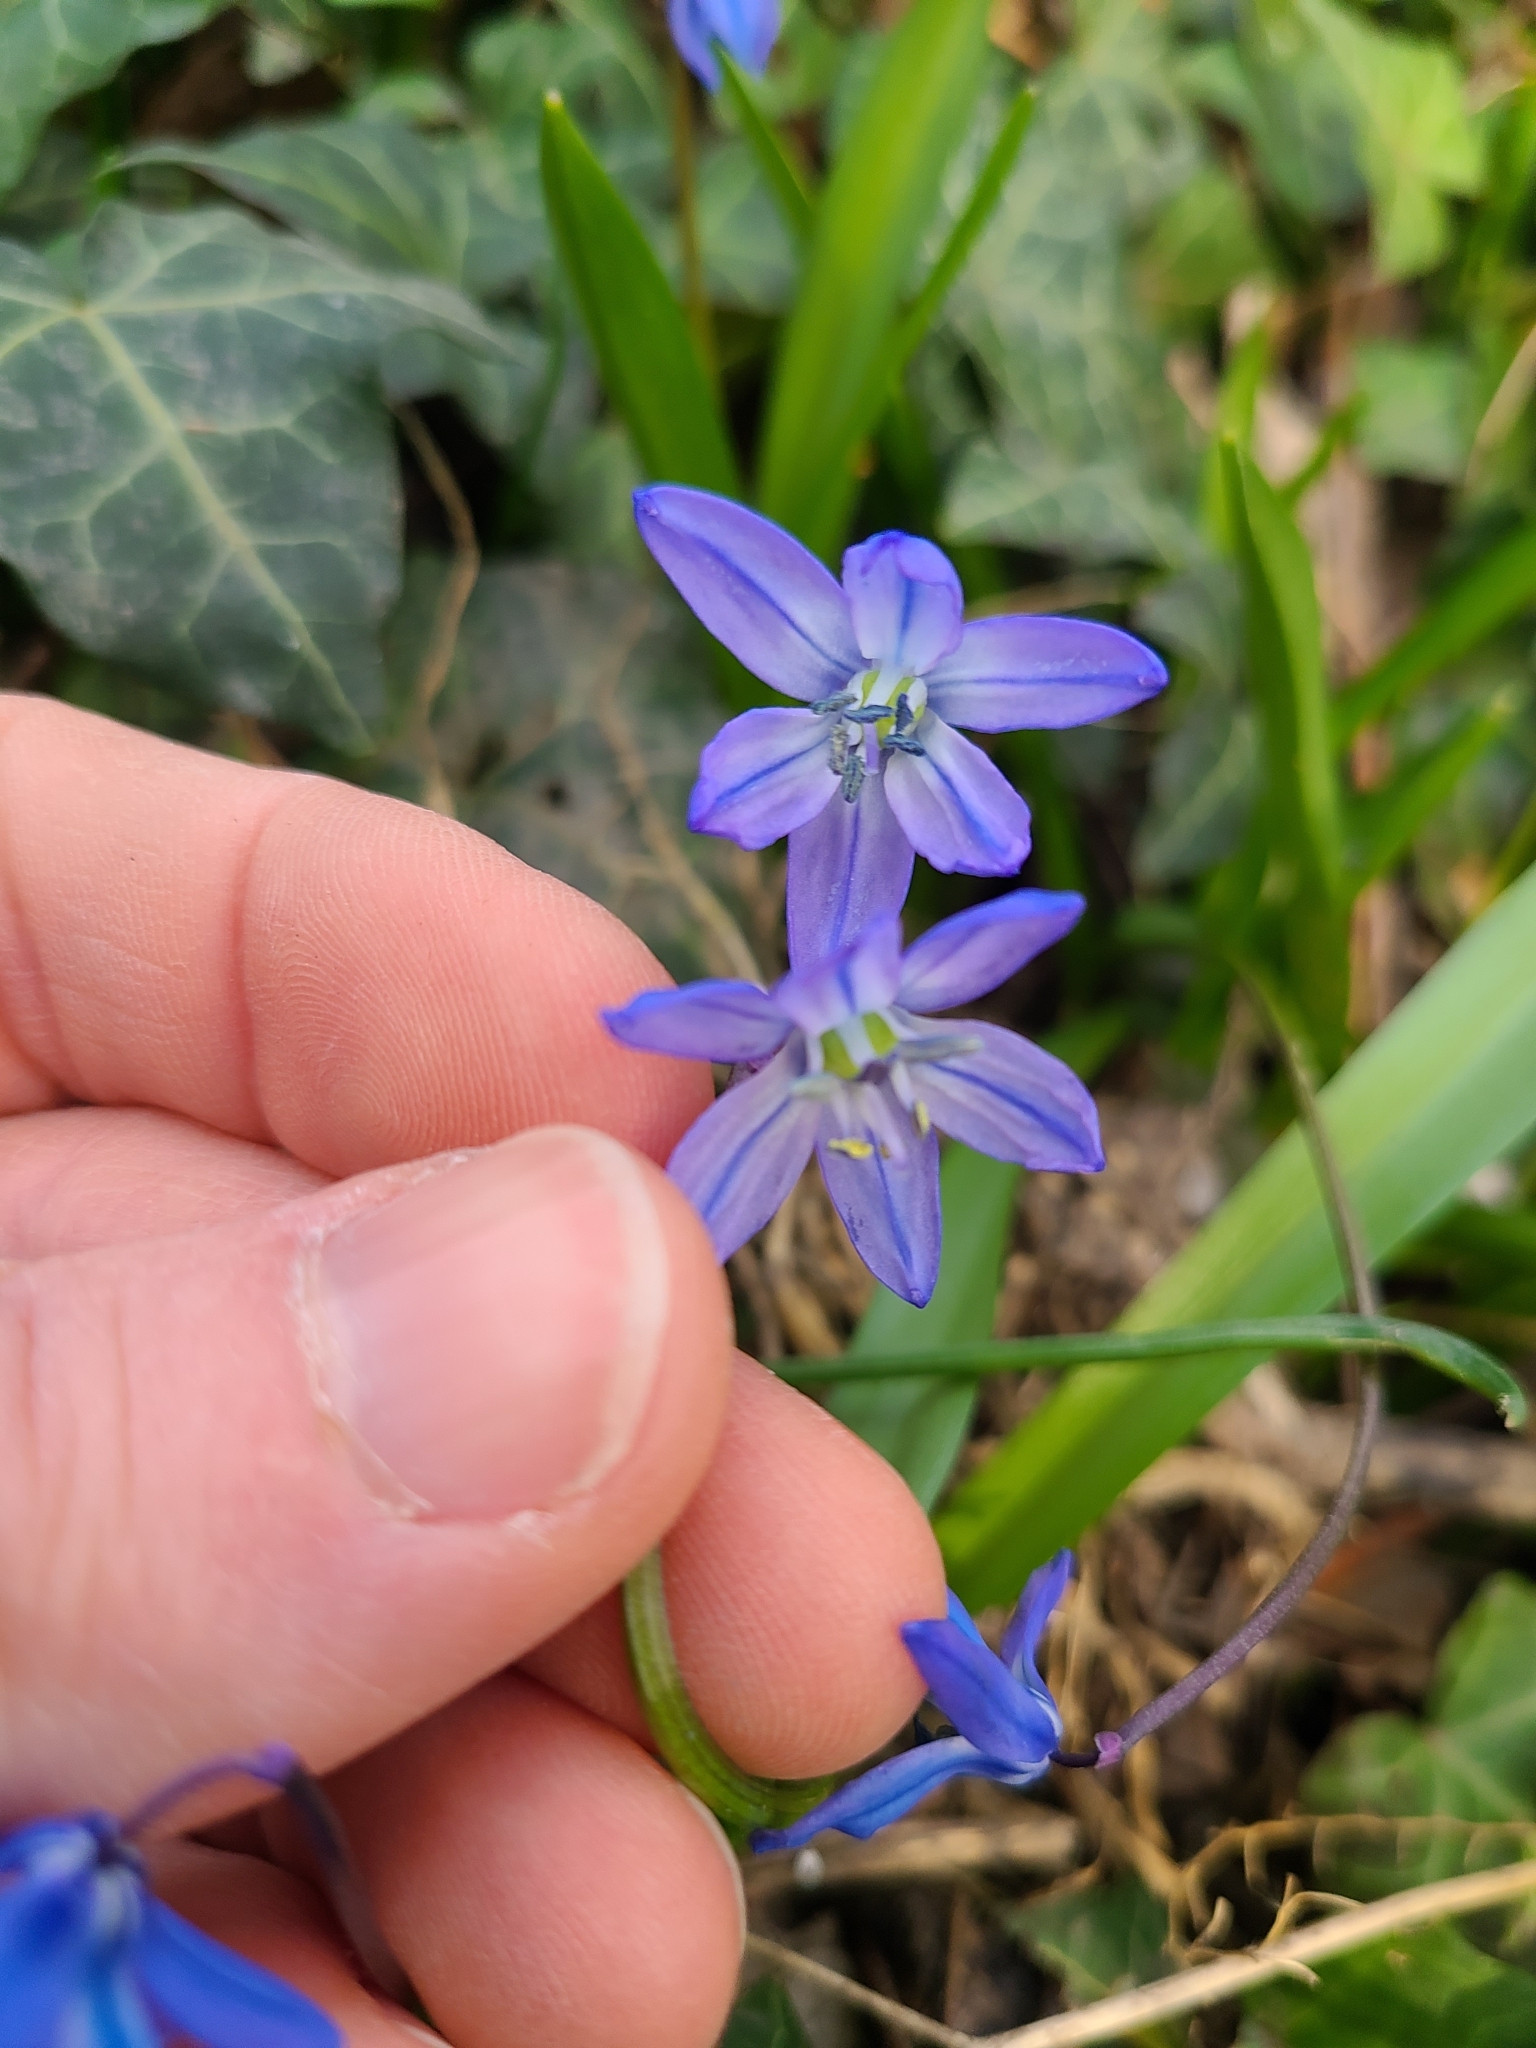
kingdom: Plantae
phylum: Tracheophyta
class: Liliopsida
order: Asparagales
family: Asparagaceae
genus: Scilla
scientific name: Scilla siberica
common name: Siberian squill
